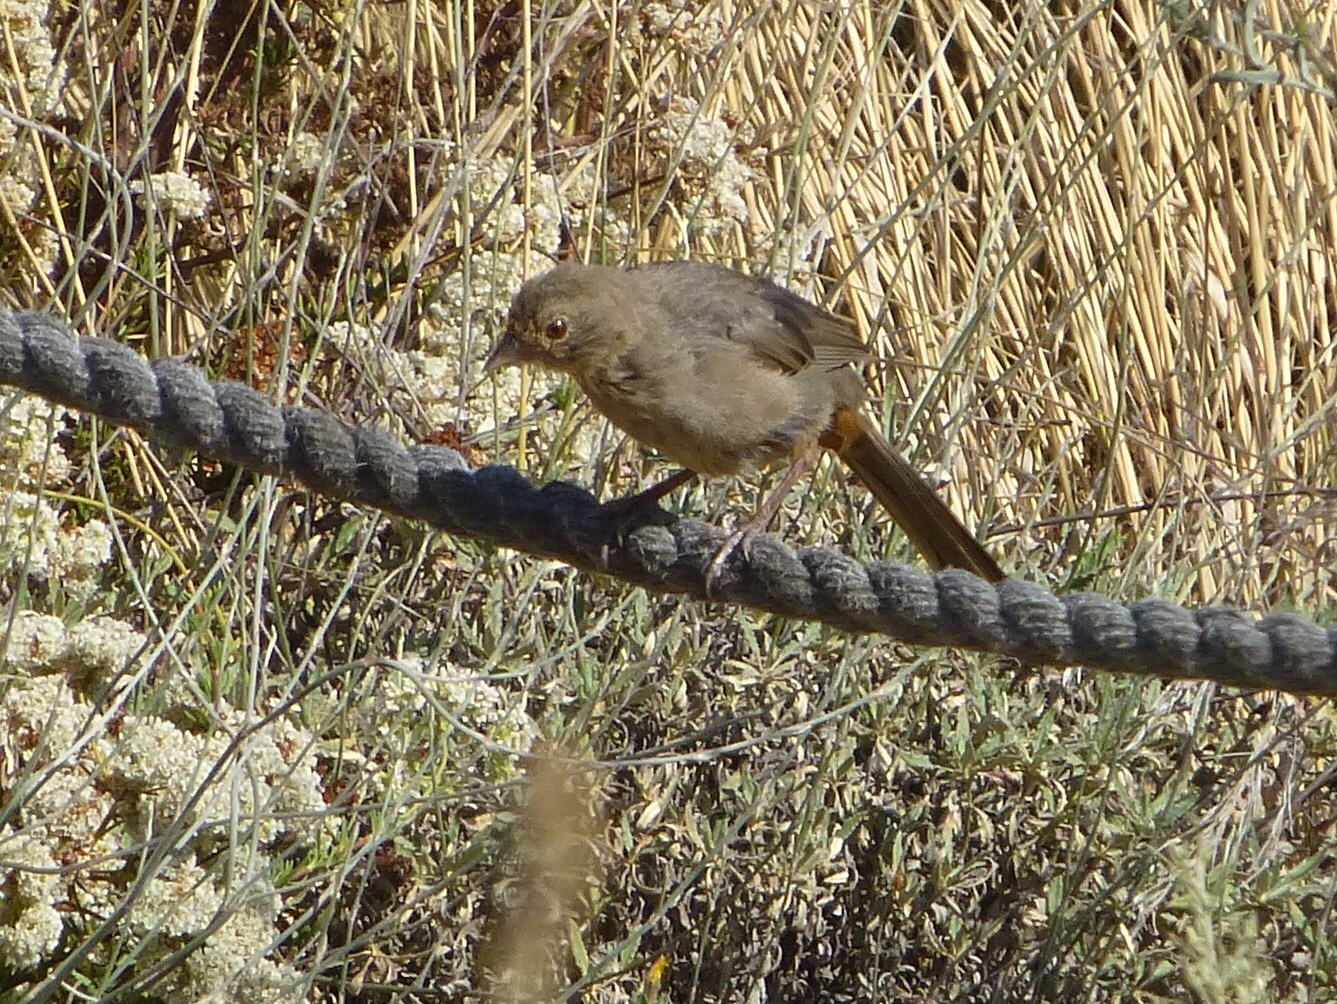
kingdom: Animalia
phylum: Chordata
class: Aves
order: Passeriformes
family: Passerellidae
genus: Melozone
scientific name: Melozone crissalis
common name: California towhee
